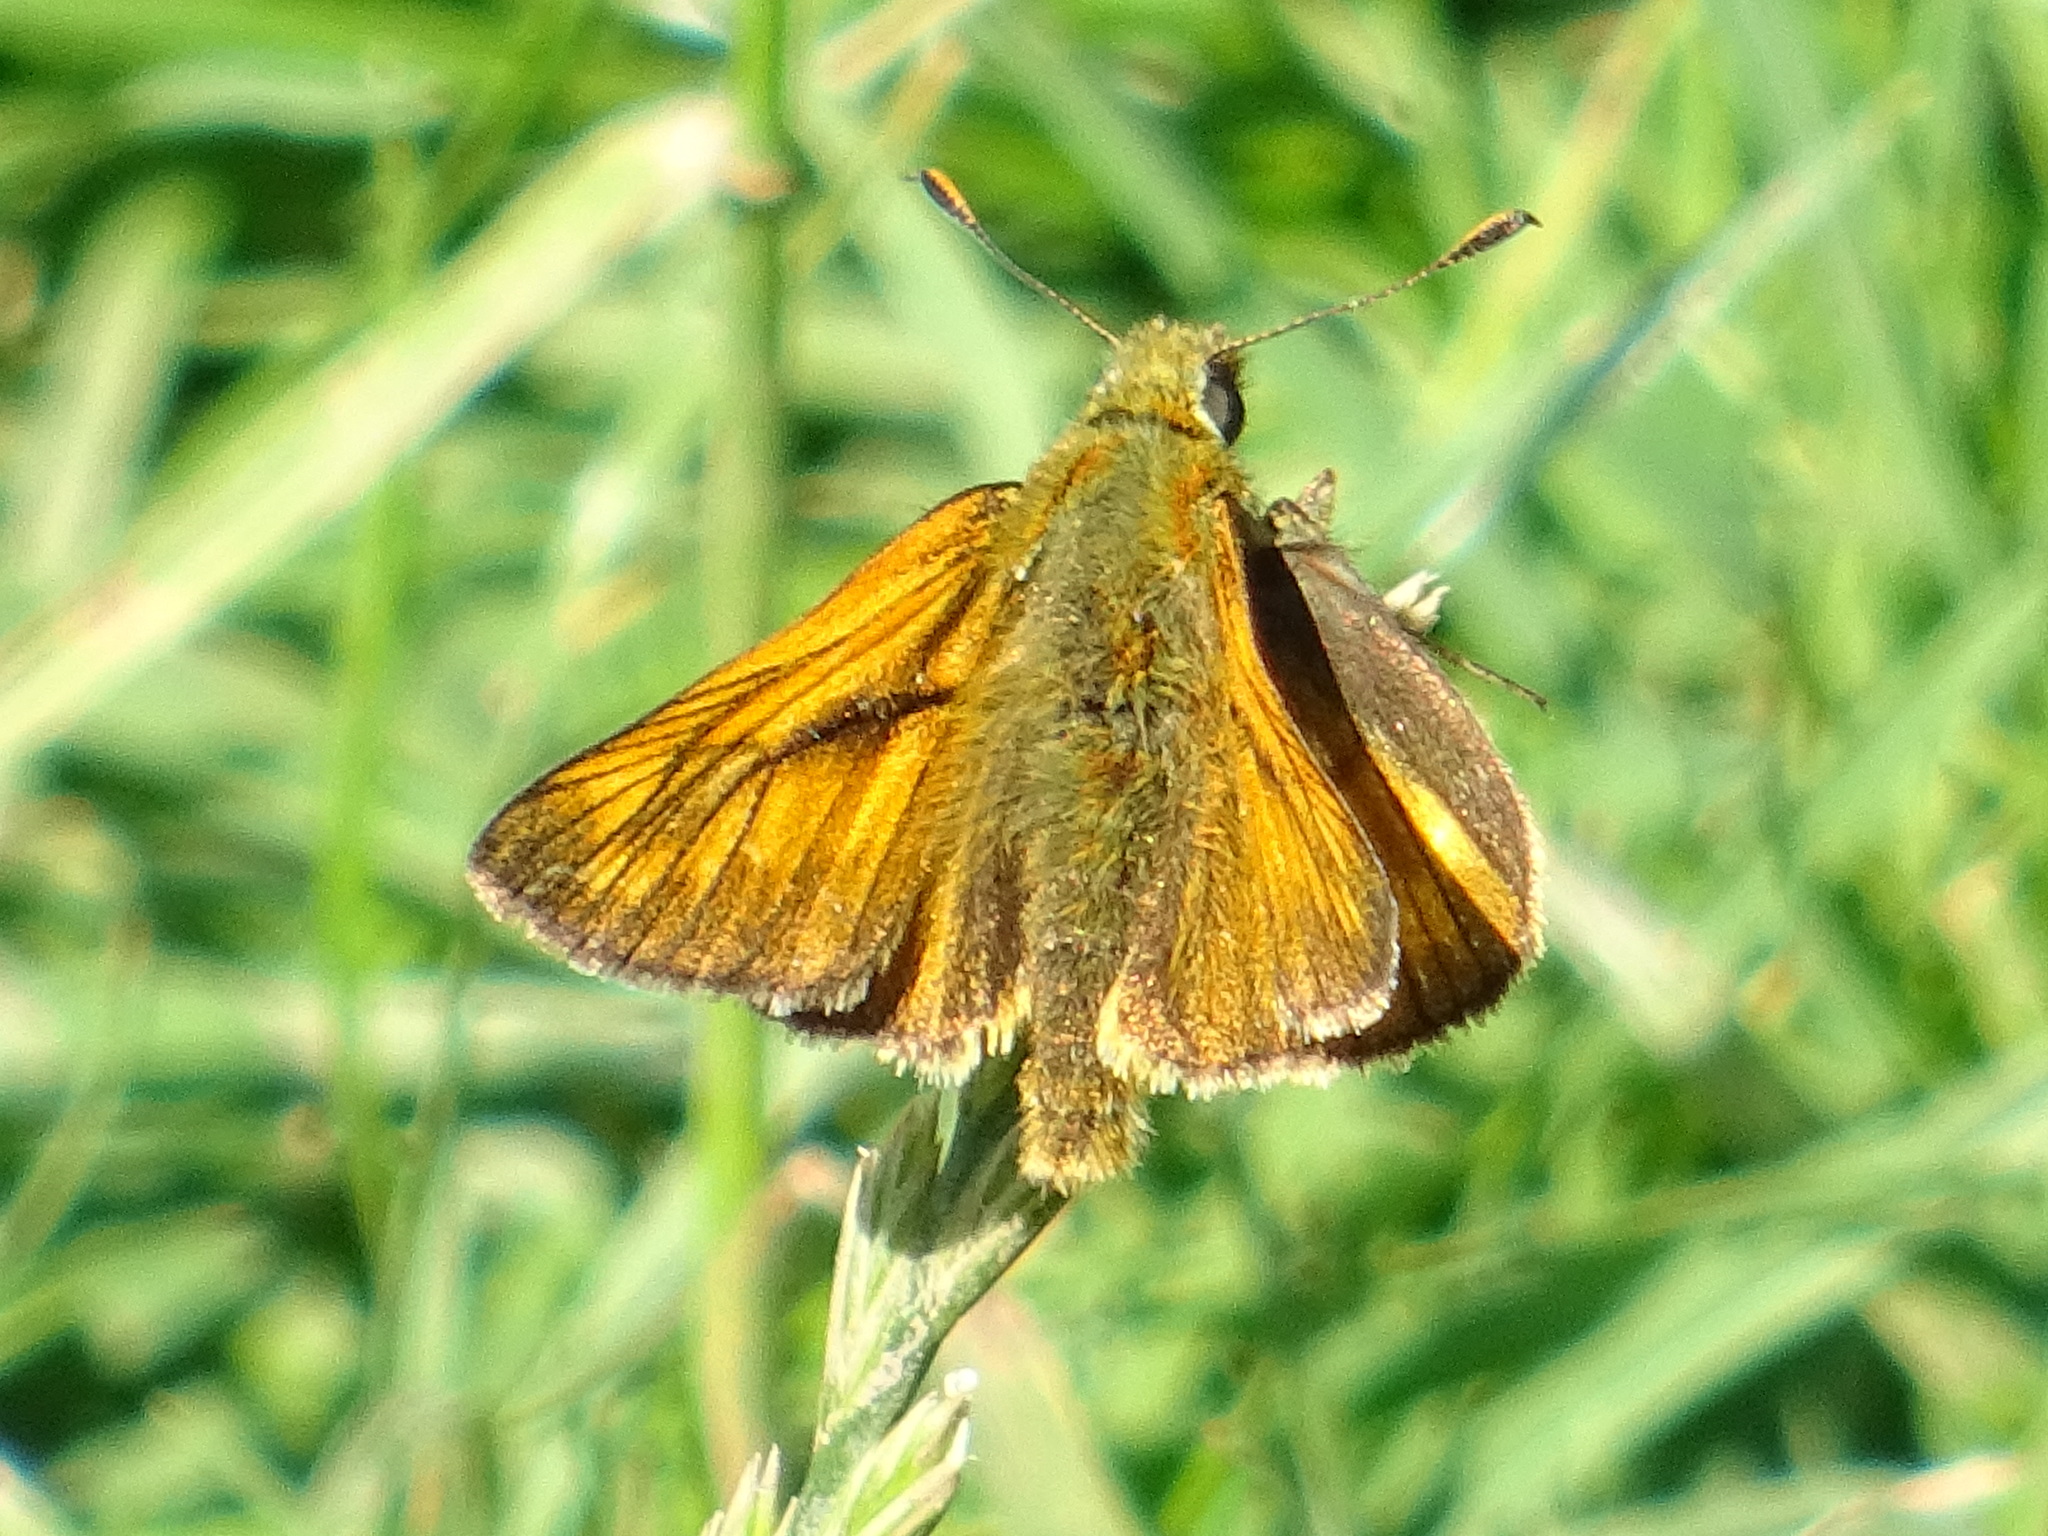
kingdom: Animalia
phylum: Arthropoda
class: Insecta
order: Lepidoptera
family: Hesperiidae
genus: Ochlodes
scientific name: Ochlodes venata
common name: Large skipper
